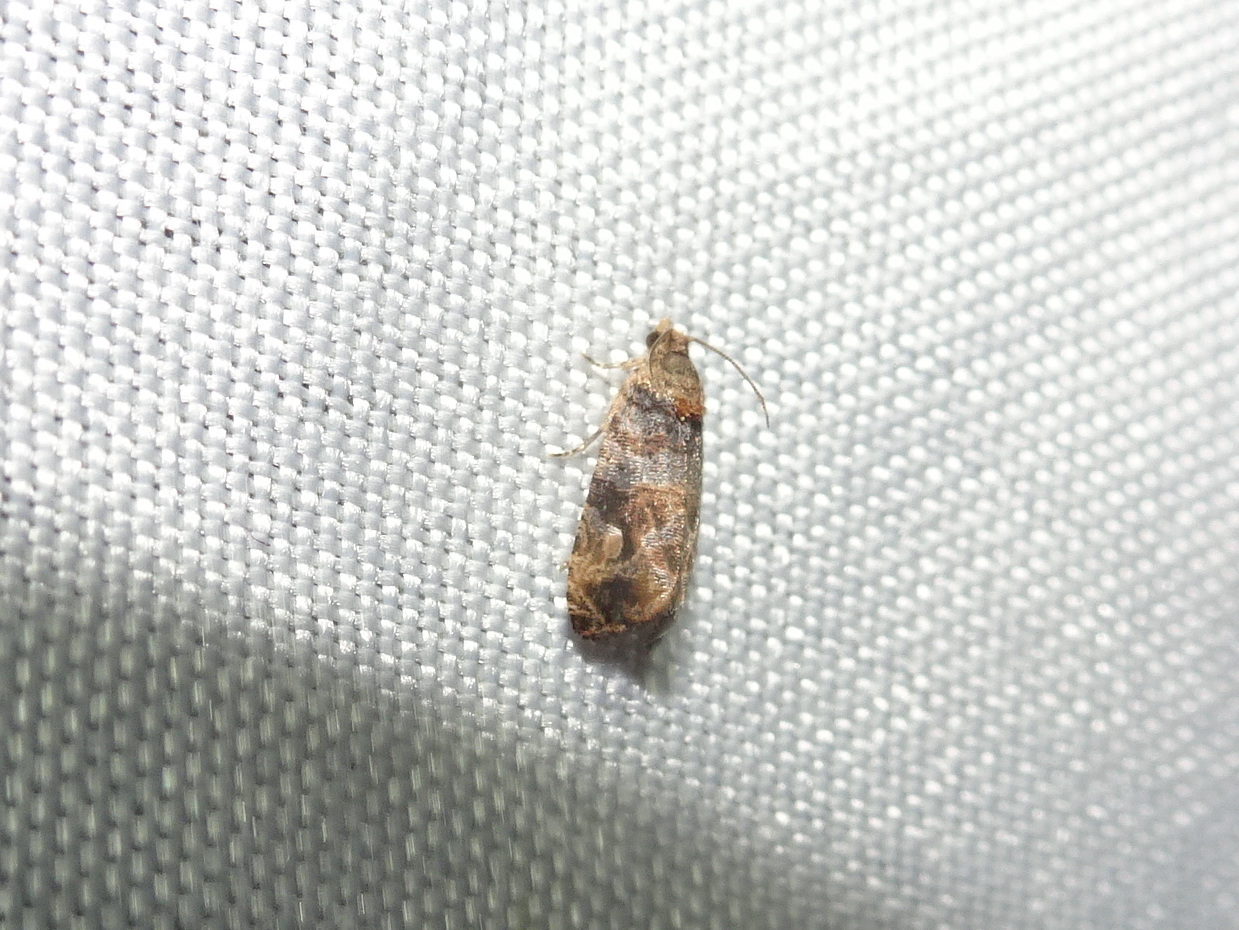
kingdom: Animalia
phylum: Arthropoda
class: Insecta
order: Lepidoptera
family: Tortricidae
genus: Paralobesia
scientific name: Paralobesia viteana
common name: Grape berry moth
